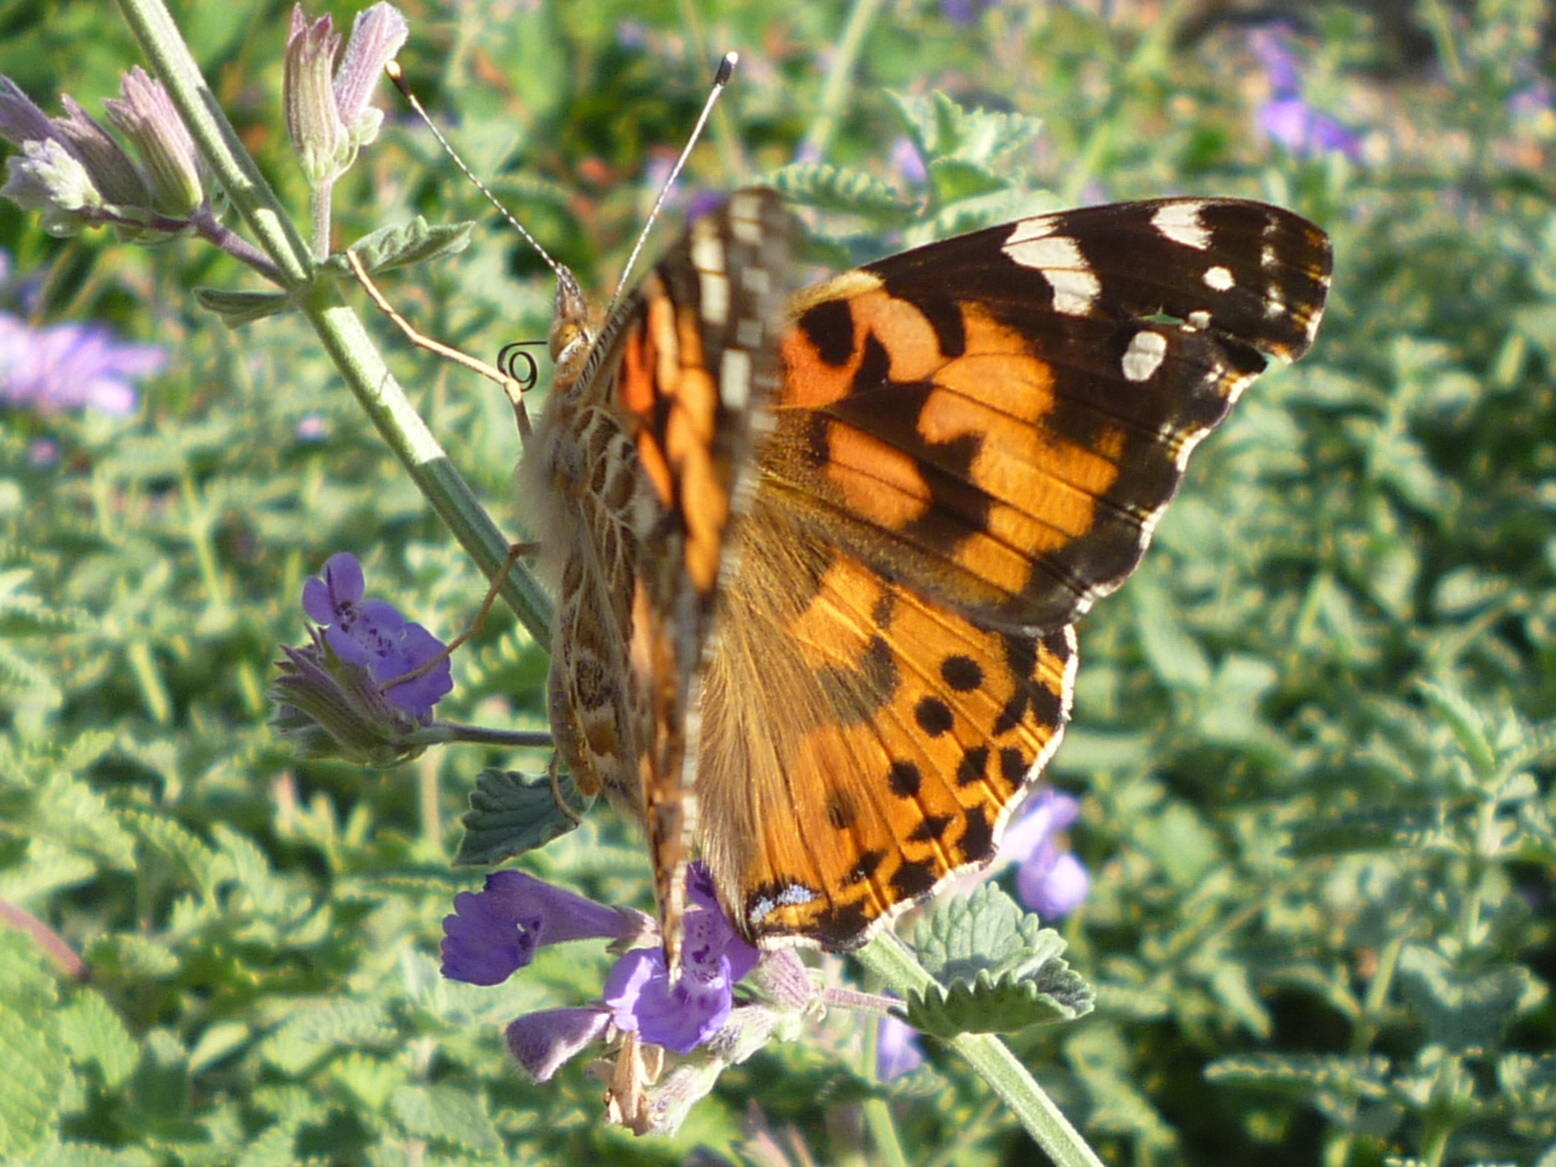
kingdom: Animalia
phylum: Arthropoda
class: Insecta
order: Lepidoptera
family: Nymphalidae
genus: Vanessa
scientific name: Vanessa cardui
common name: Painted lady
